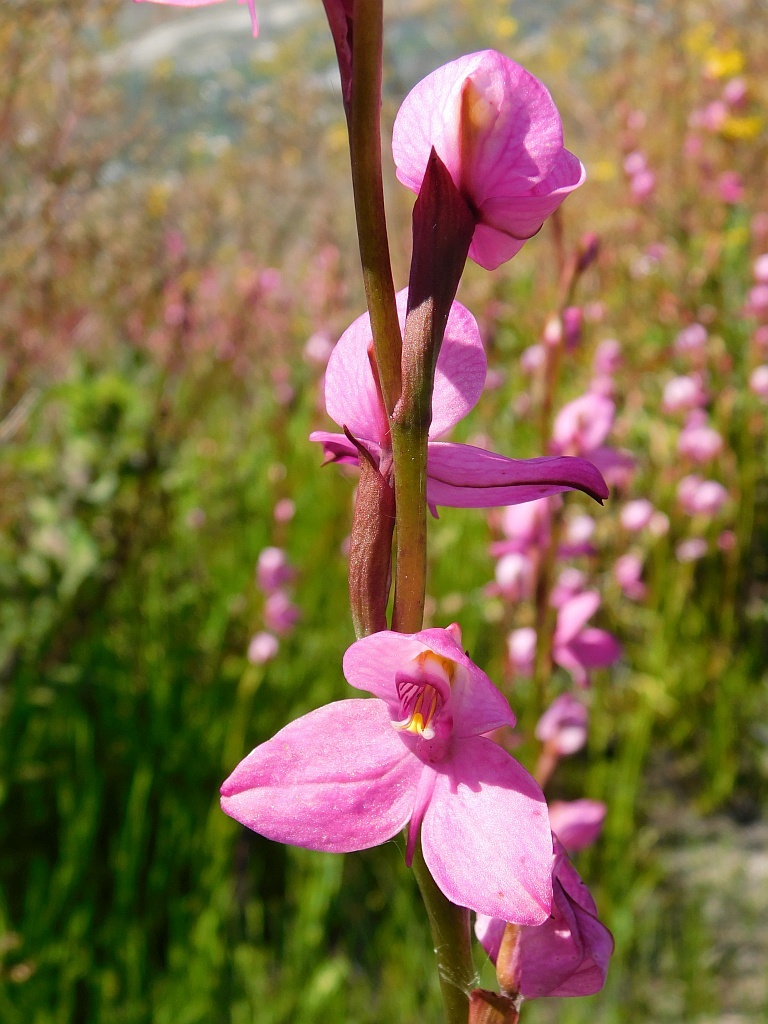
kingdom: Plantae
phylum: Tracheophyta
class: Liliopsida
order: Asparagales
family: Orchidaceae
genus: Disa
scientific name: Disa racemosa
